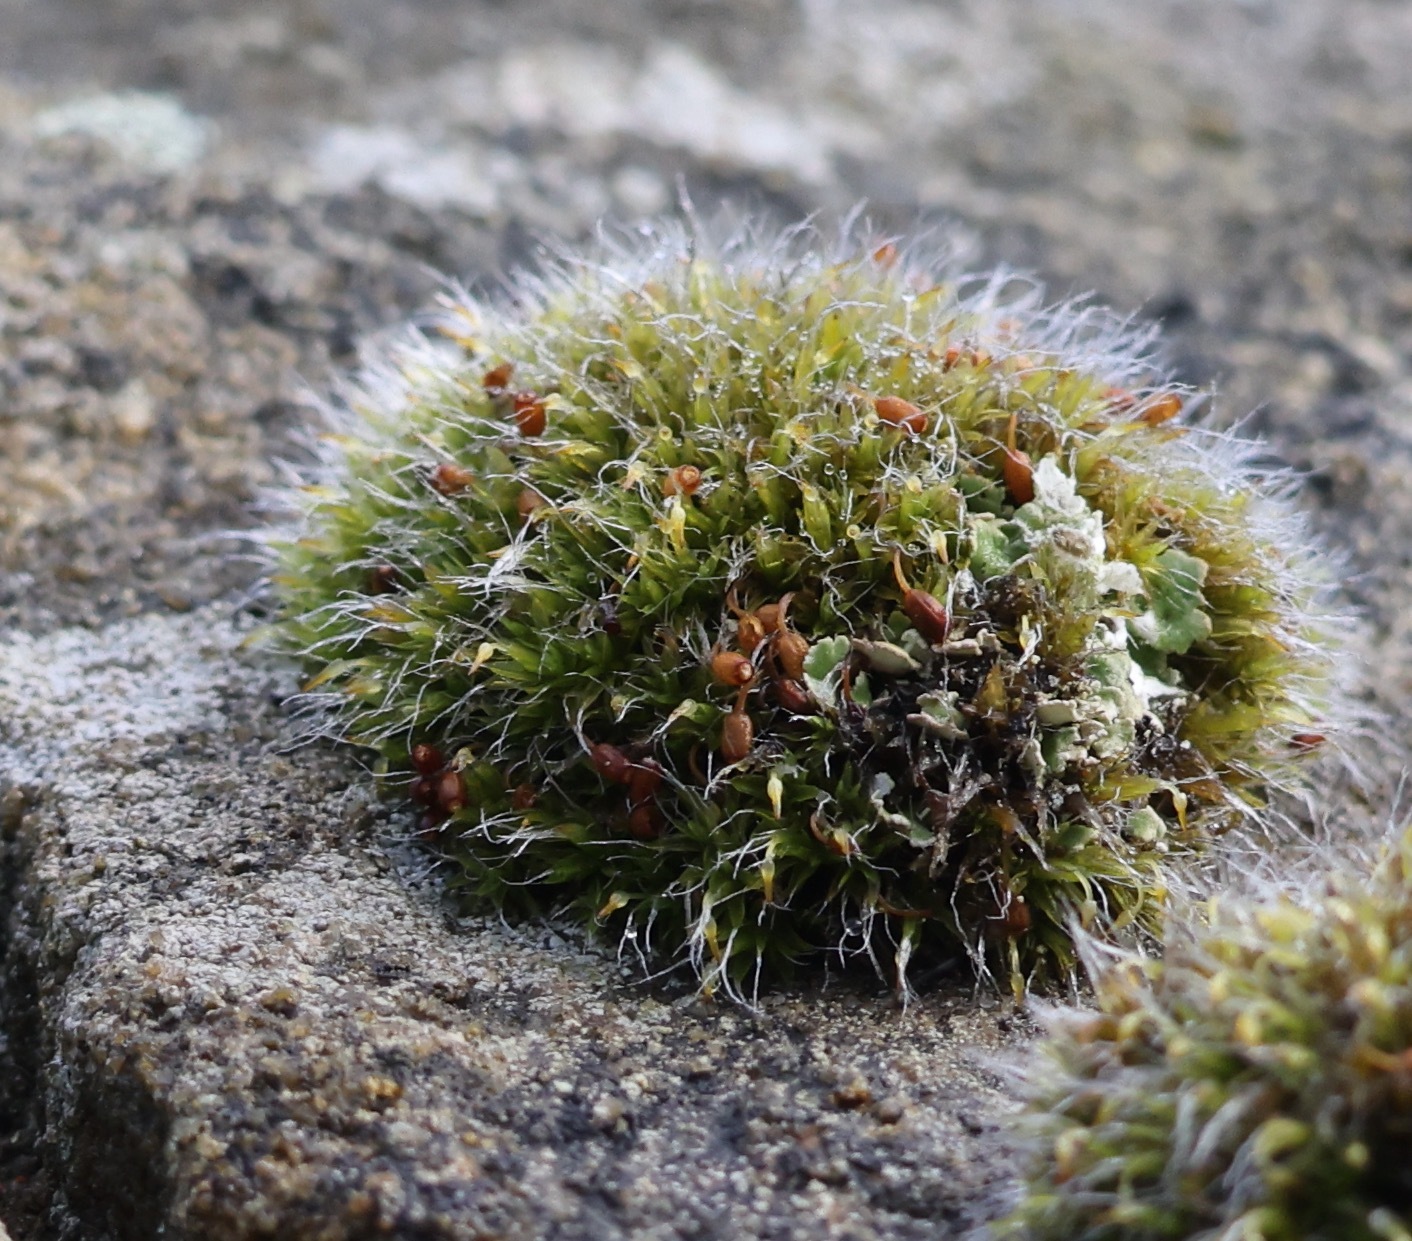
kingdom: Plantae
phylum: Bryophyta
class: Bryopsida
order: Grimmiales
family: Grimmiaceae
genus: Grimmia
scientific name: Grimmia pulvinata
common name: Grey-cushioned grimmia
